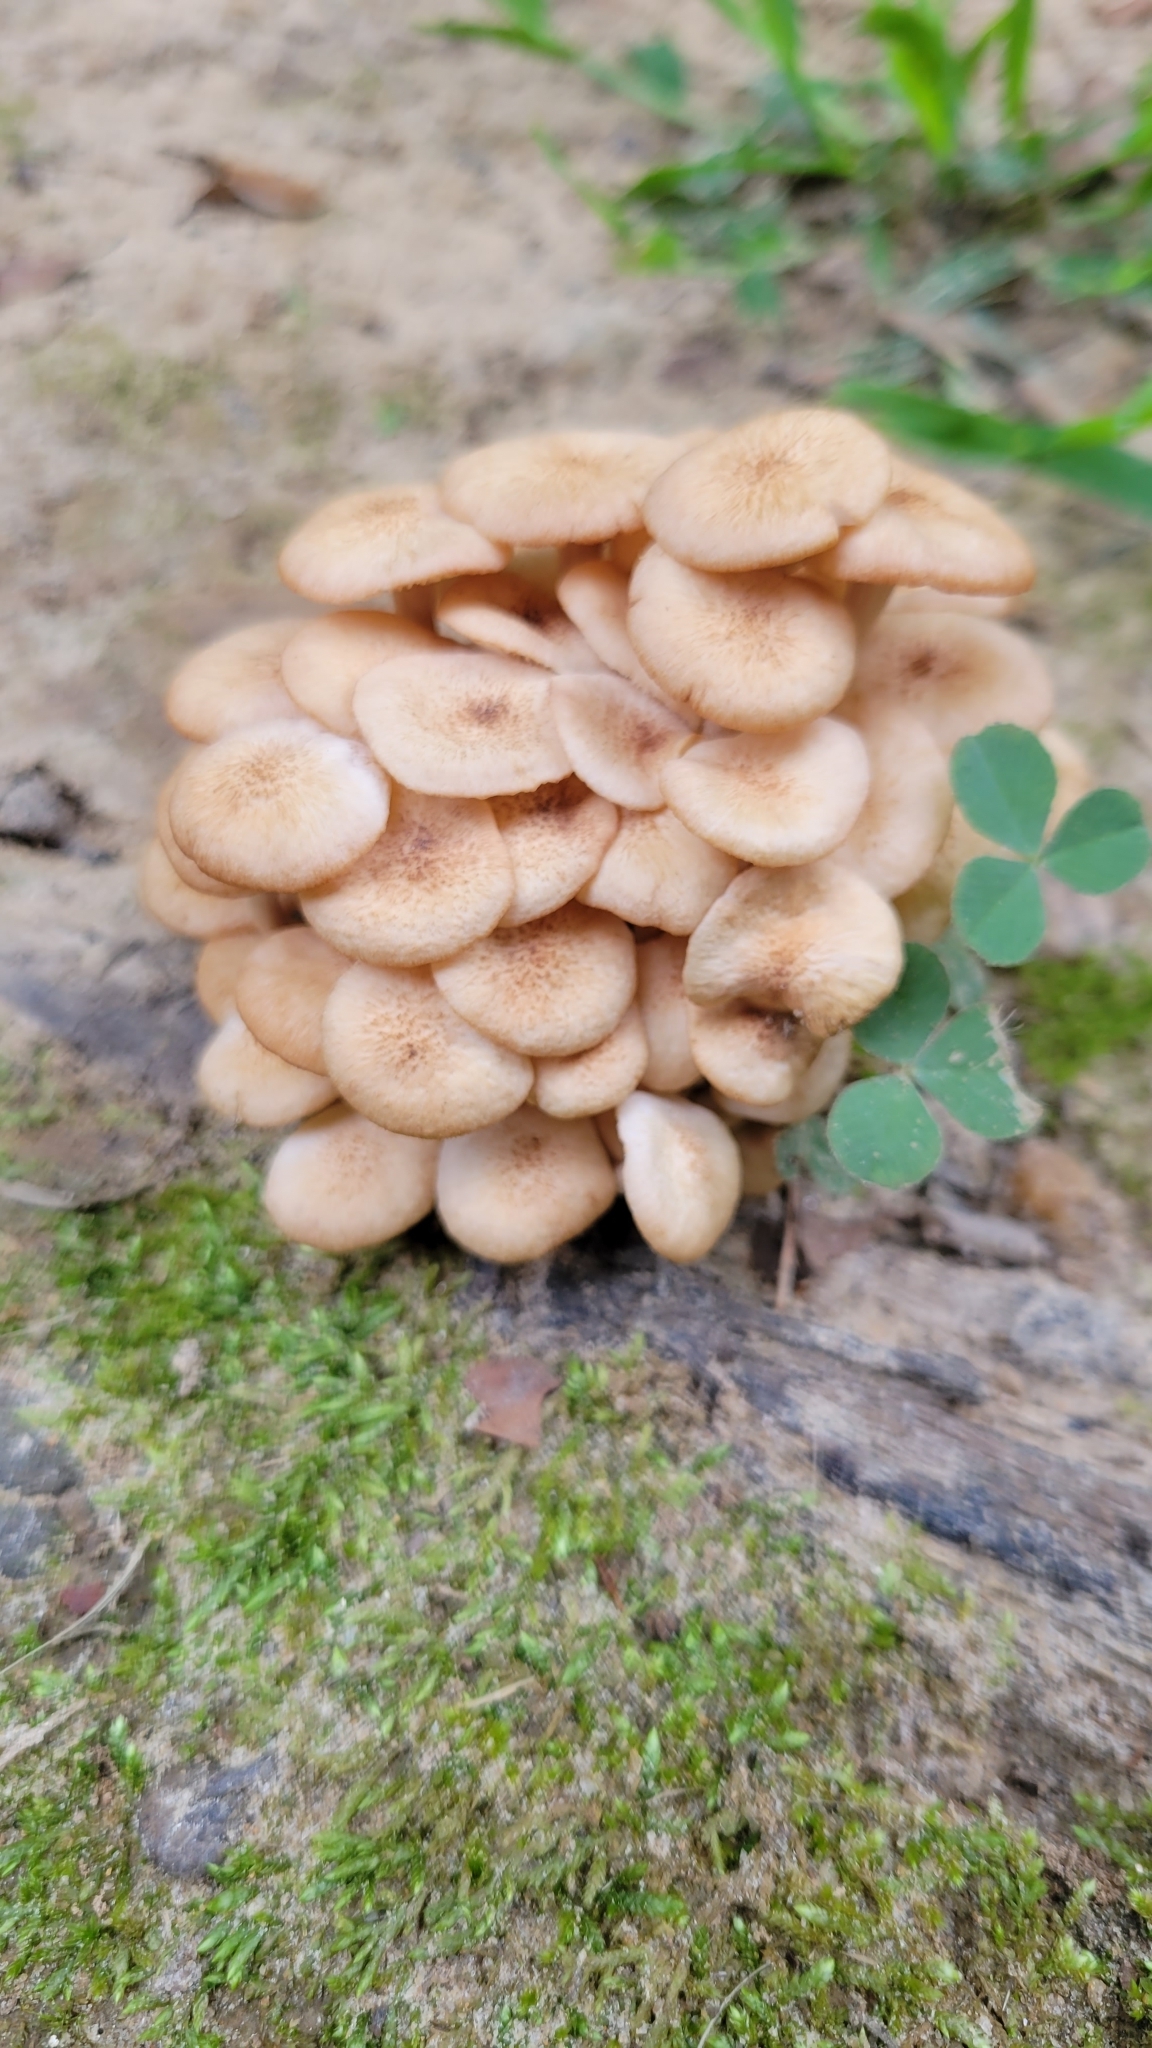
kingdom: Fungi
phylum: Basidiomycota
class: Agaricomycetes
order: Agaricales
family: Physalacriaceae
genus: Desarmillaria
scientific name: Desarmillaria caespitosa
